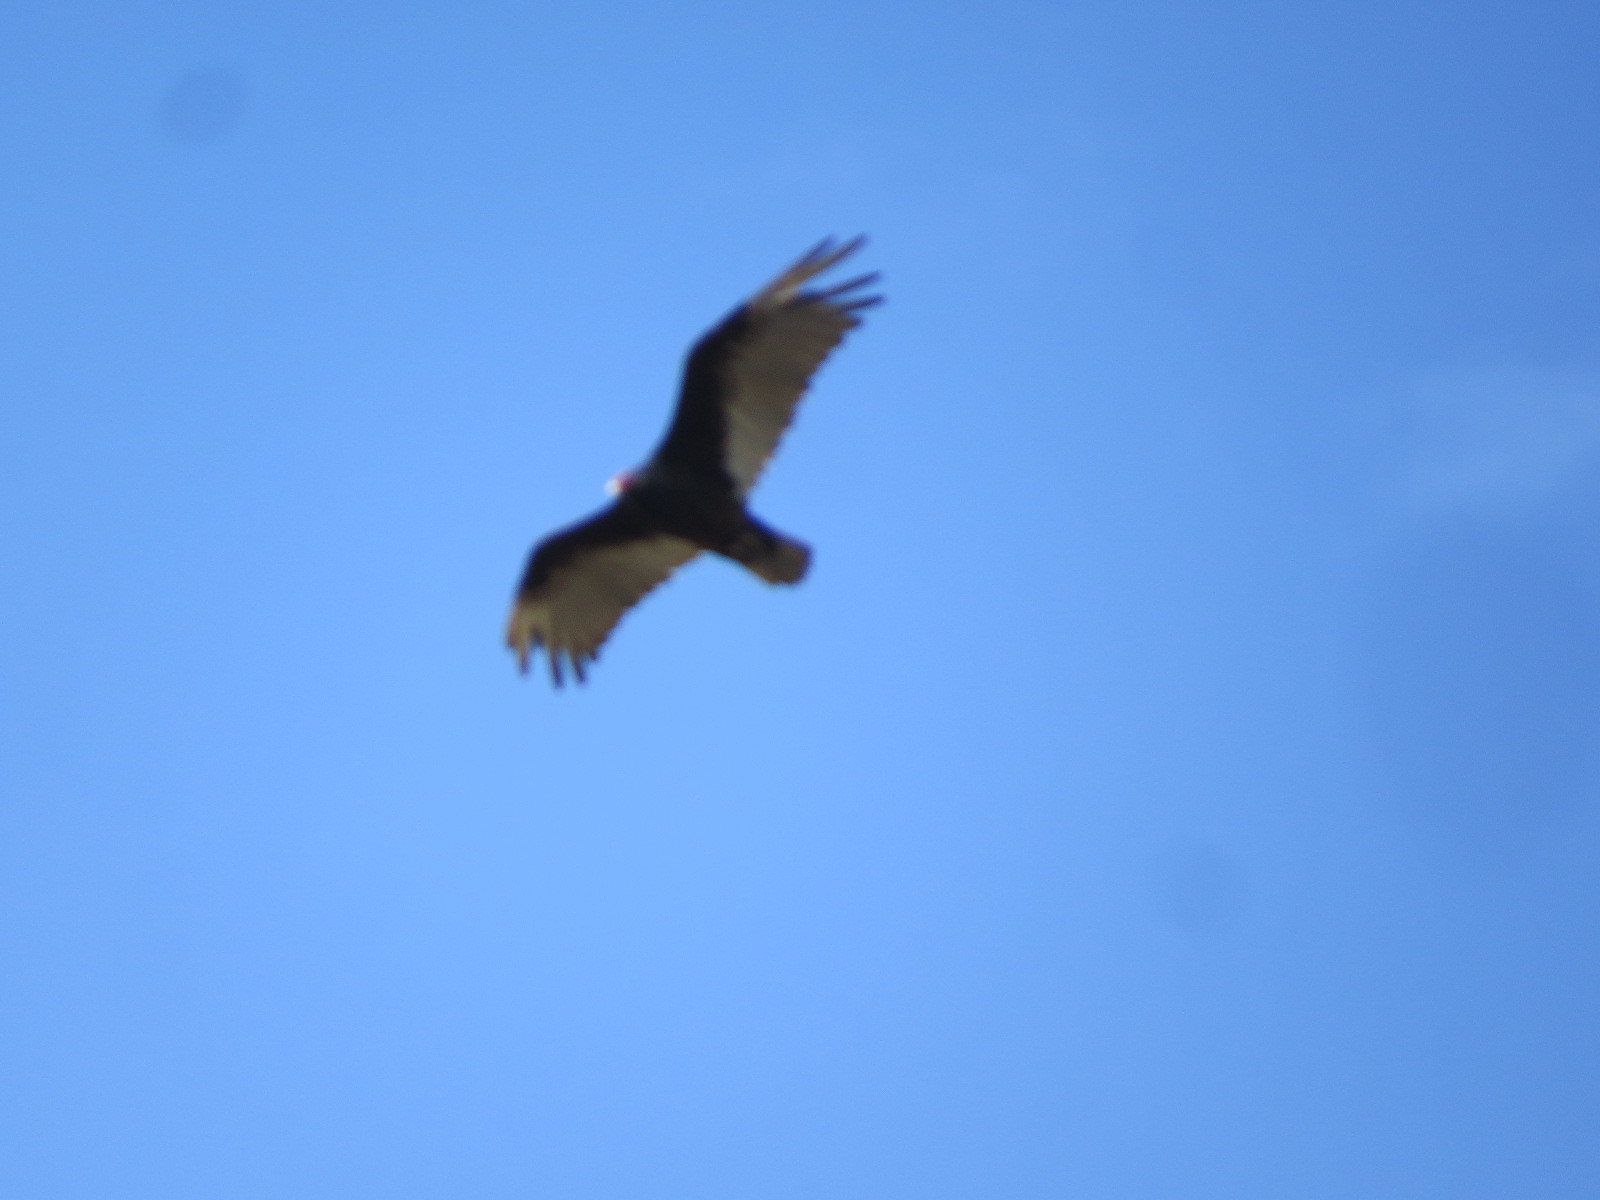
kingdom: Animalia
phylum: Chordata
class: Aves
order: Accipitriformes
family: Cathartidae
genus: Cathartes
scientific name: Cathartes aura
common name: Turkey vulture
